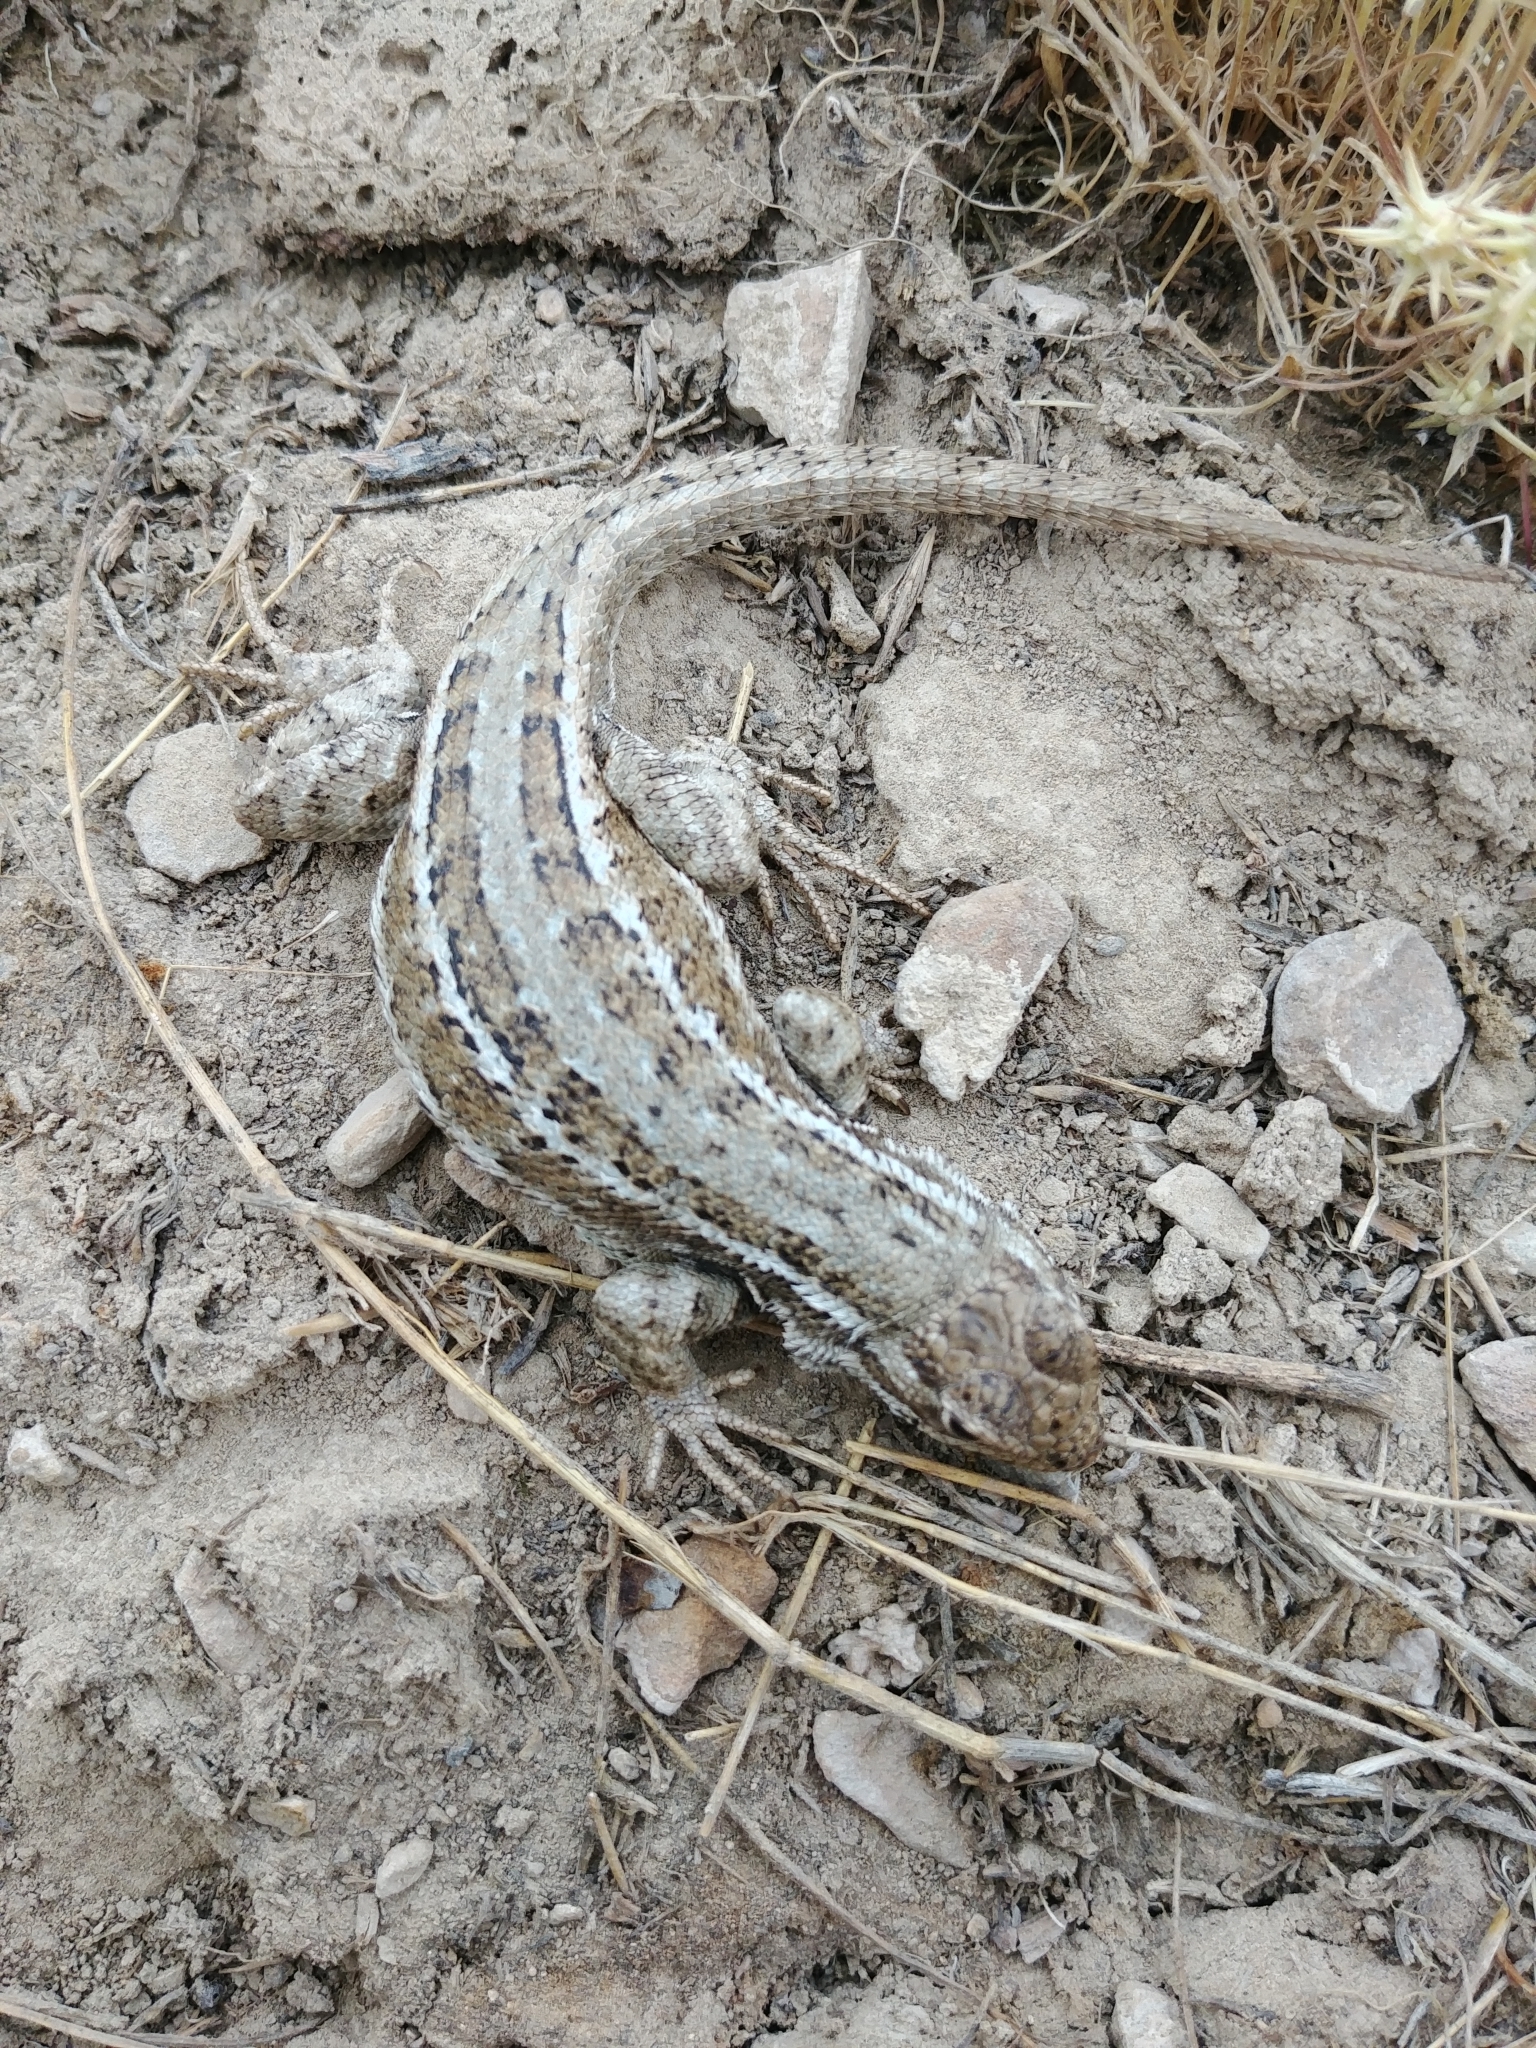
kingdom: Animalia
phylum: Chordata
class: Squamata
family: Phrynosomatidae
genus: Sceloporus
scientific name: Sceloporus graciosus
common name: Sagebrush lizard
